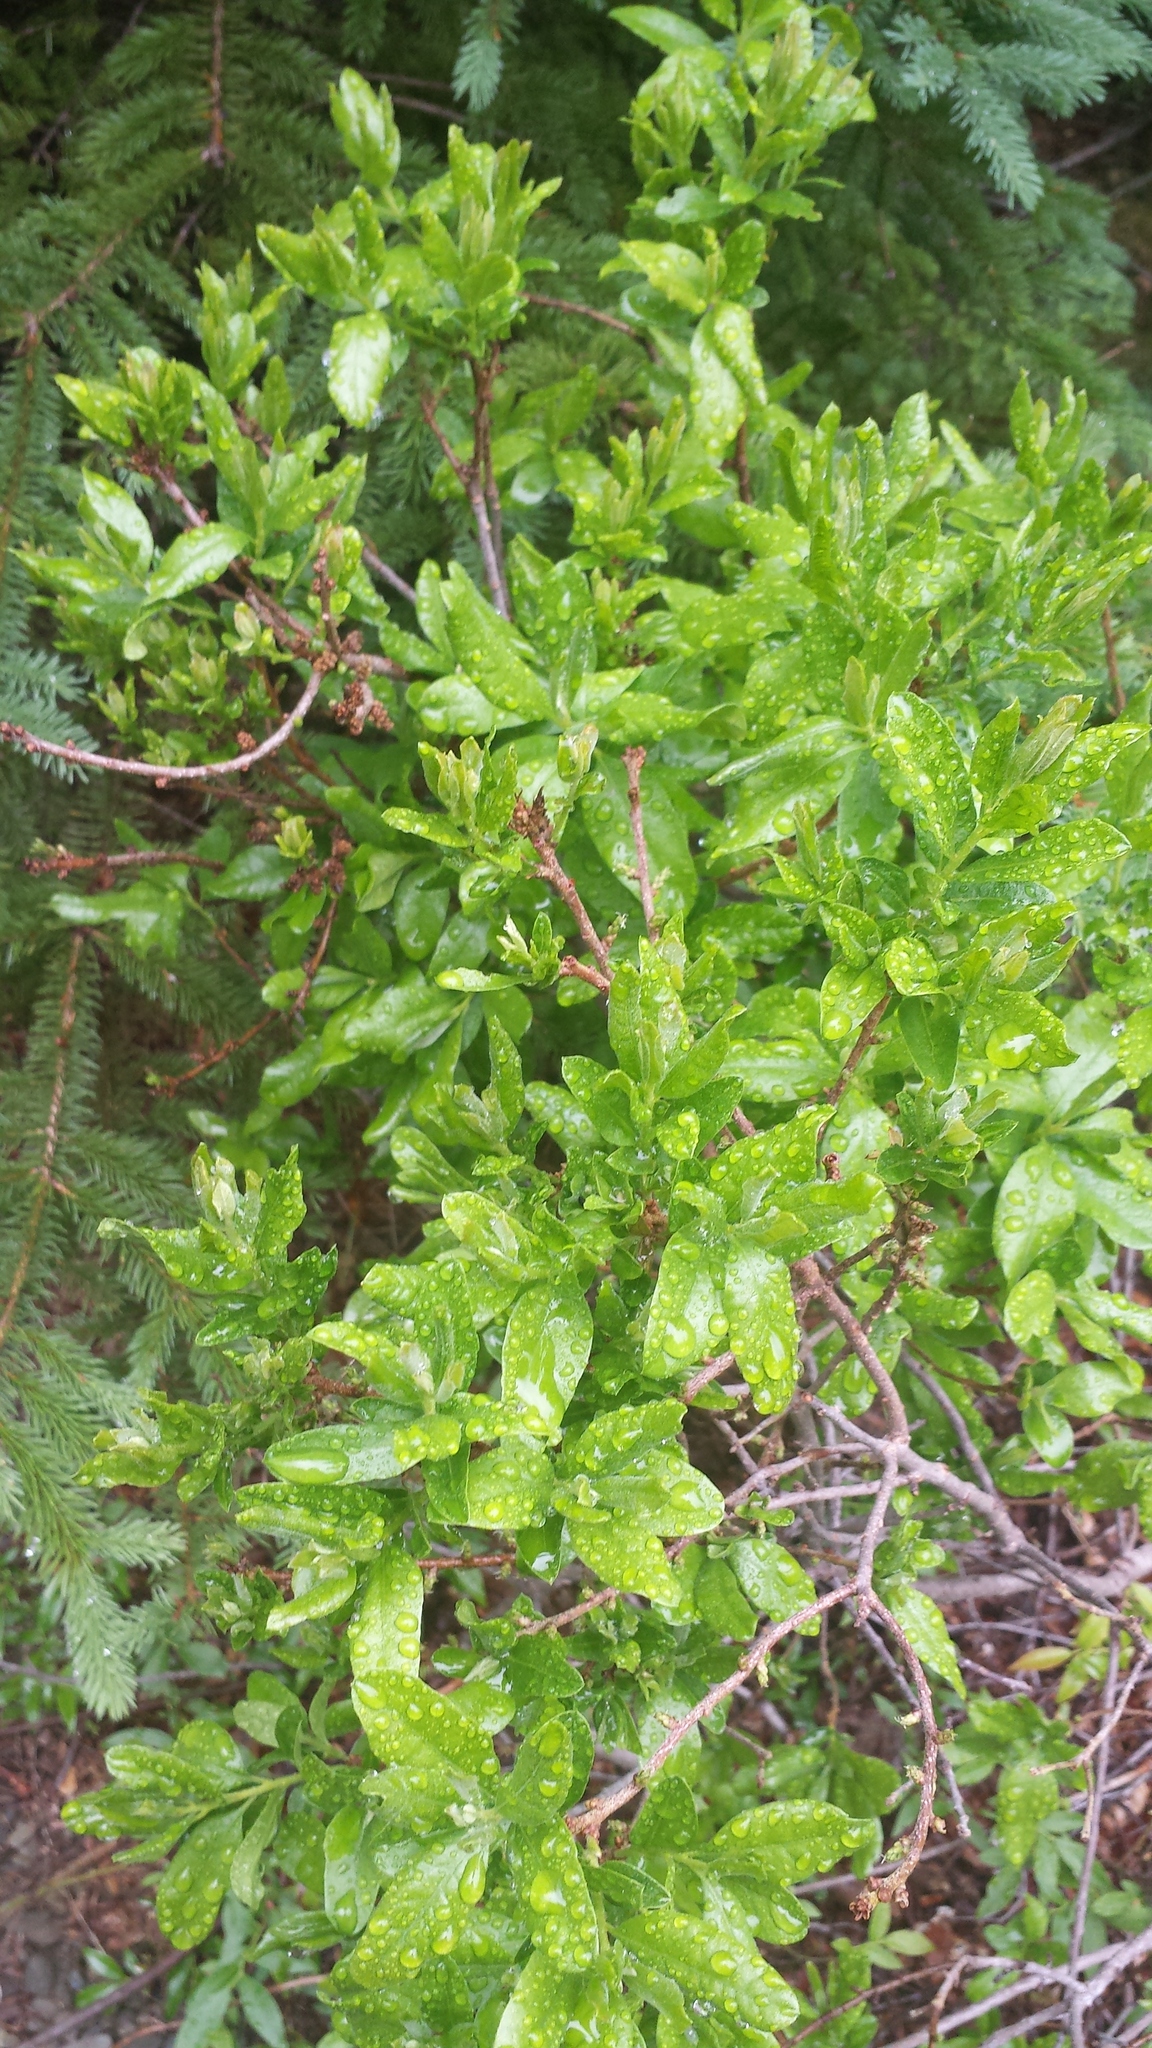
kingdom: Plantae
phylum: Tracheophyta
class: Magnoliopsida
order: Fagales
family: Myricaceae
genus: Morella
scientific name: Morella pensylvanica
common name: Northern bayberry
